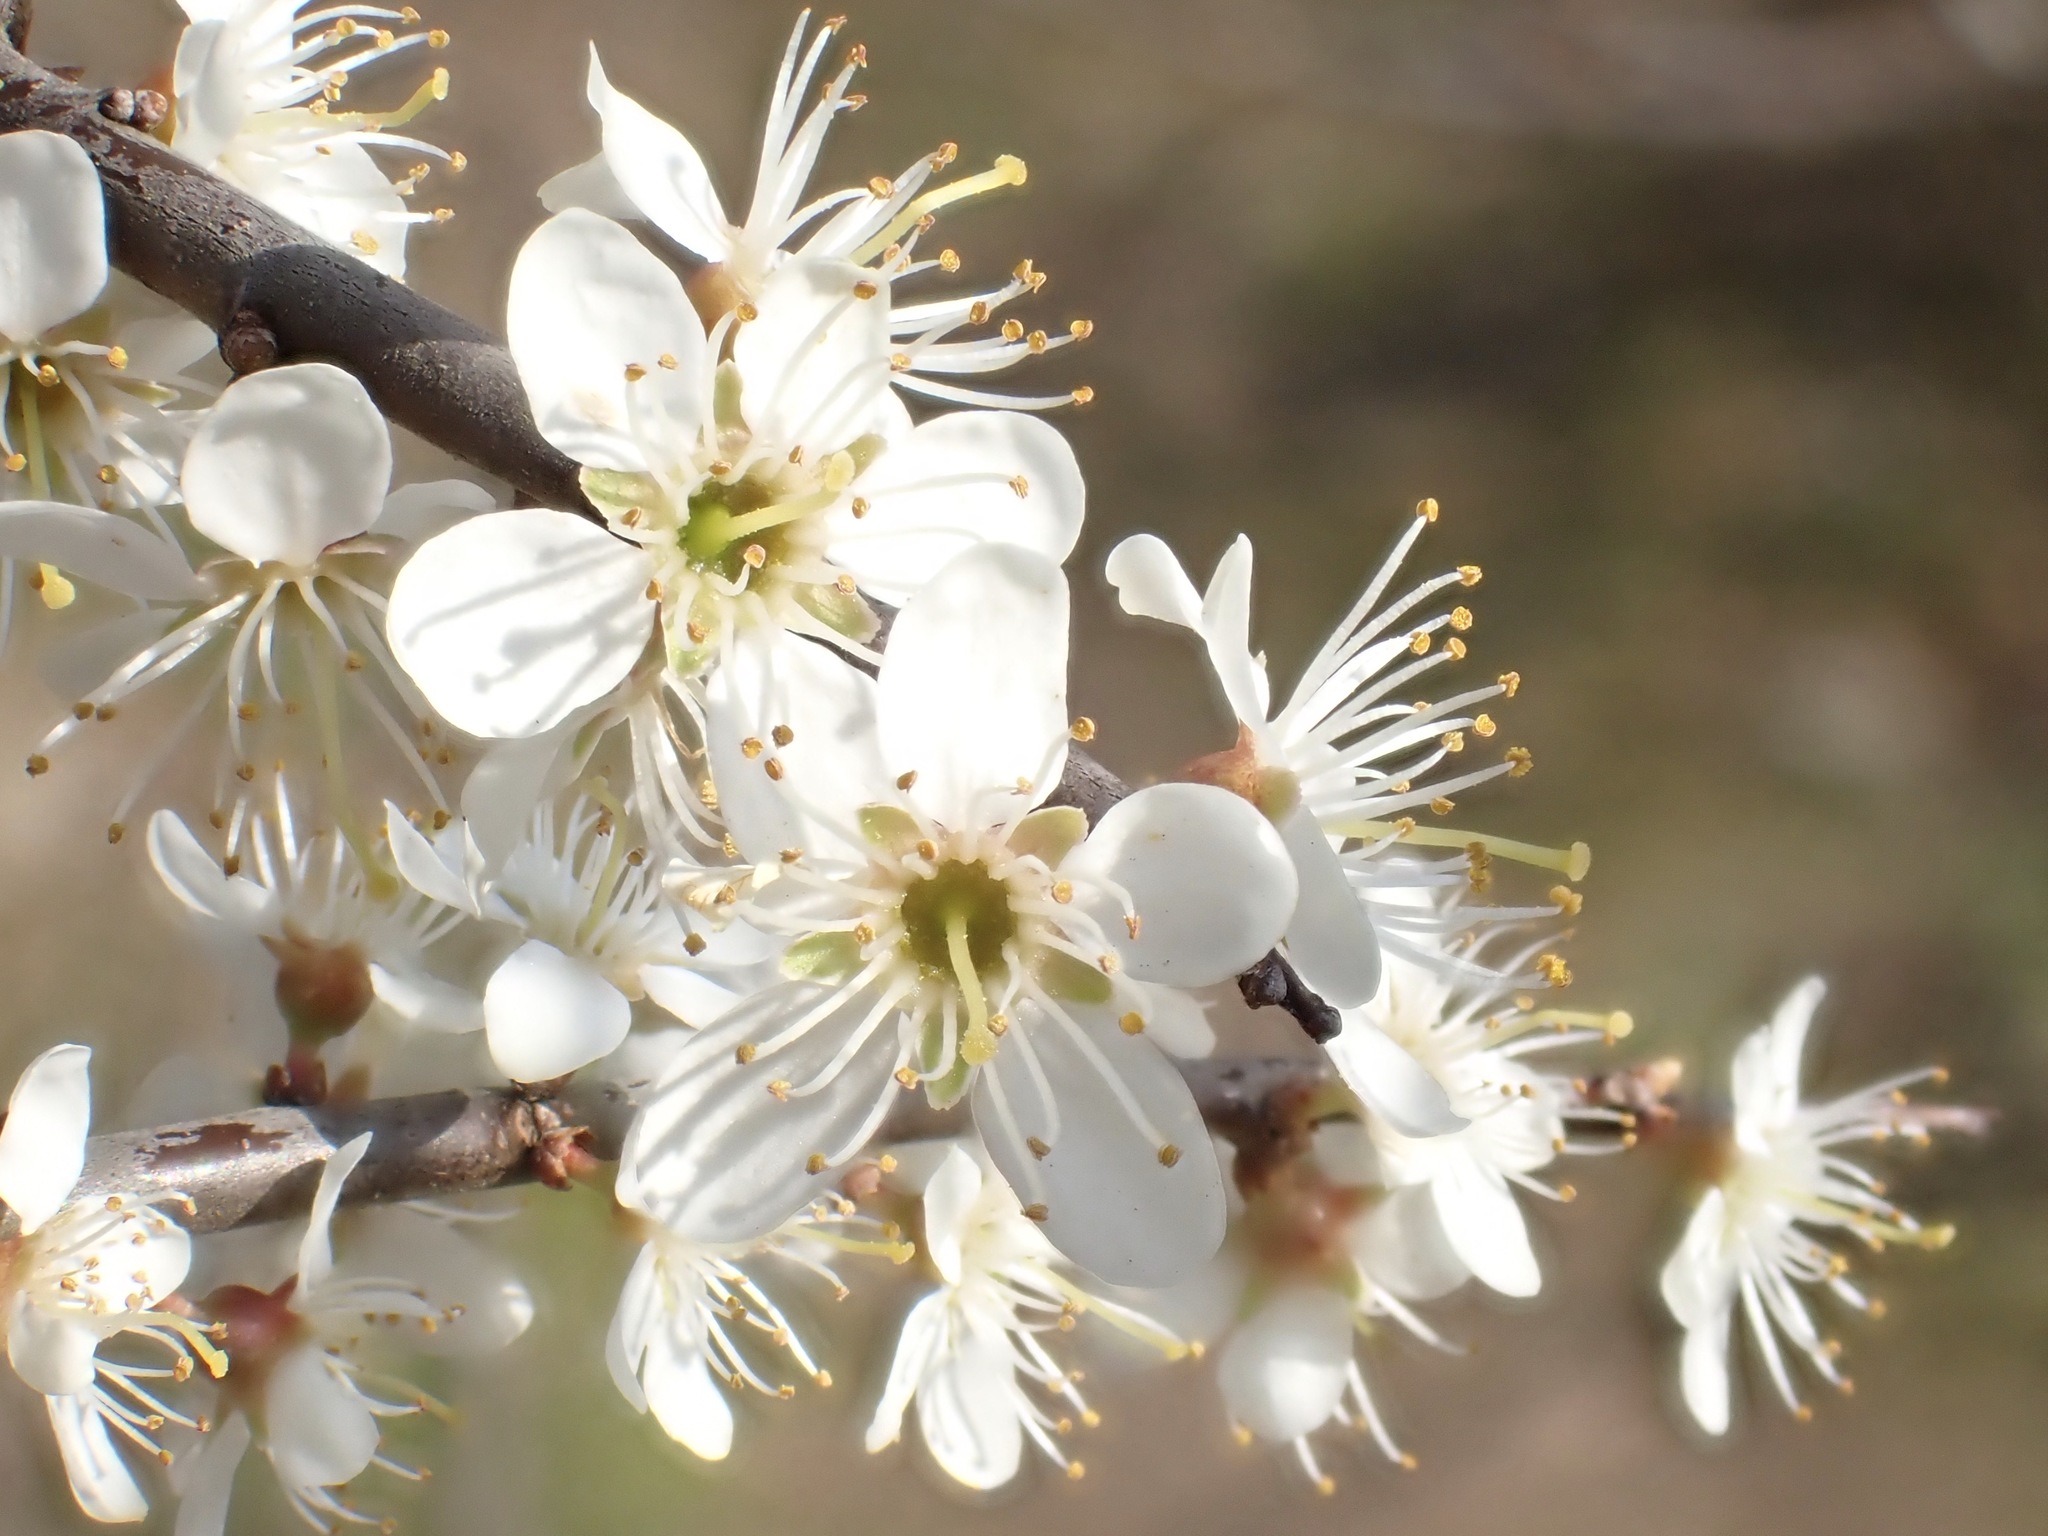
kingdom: Plantae
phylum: Tracheophyta
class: Magnoliopsida
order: Rosales
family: Rosaceae
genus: Prunus
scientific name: Prunus spinosa
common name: Blackthorn
